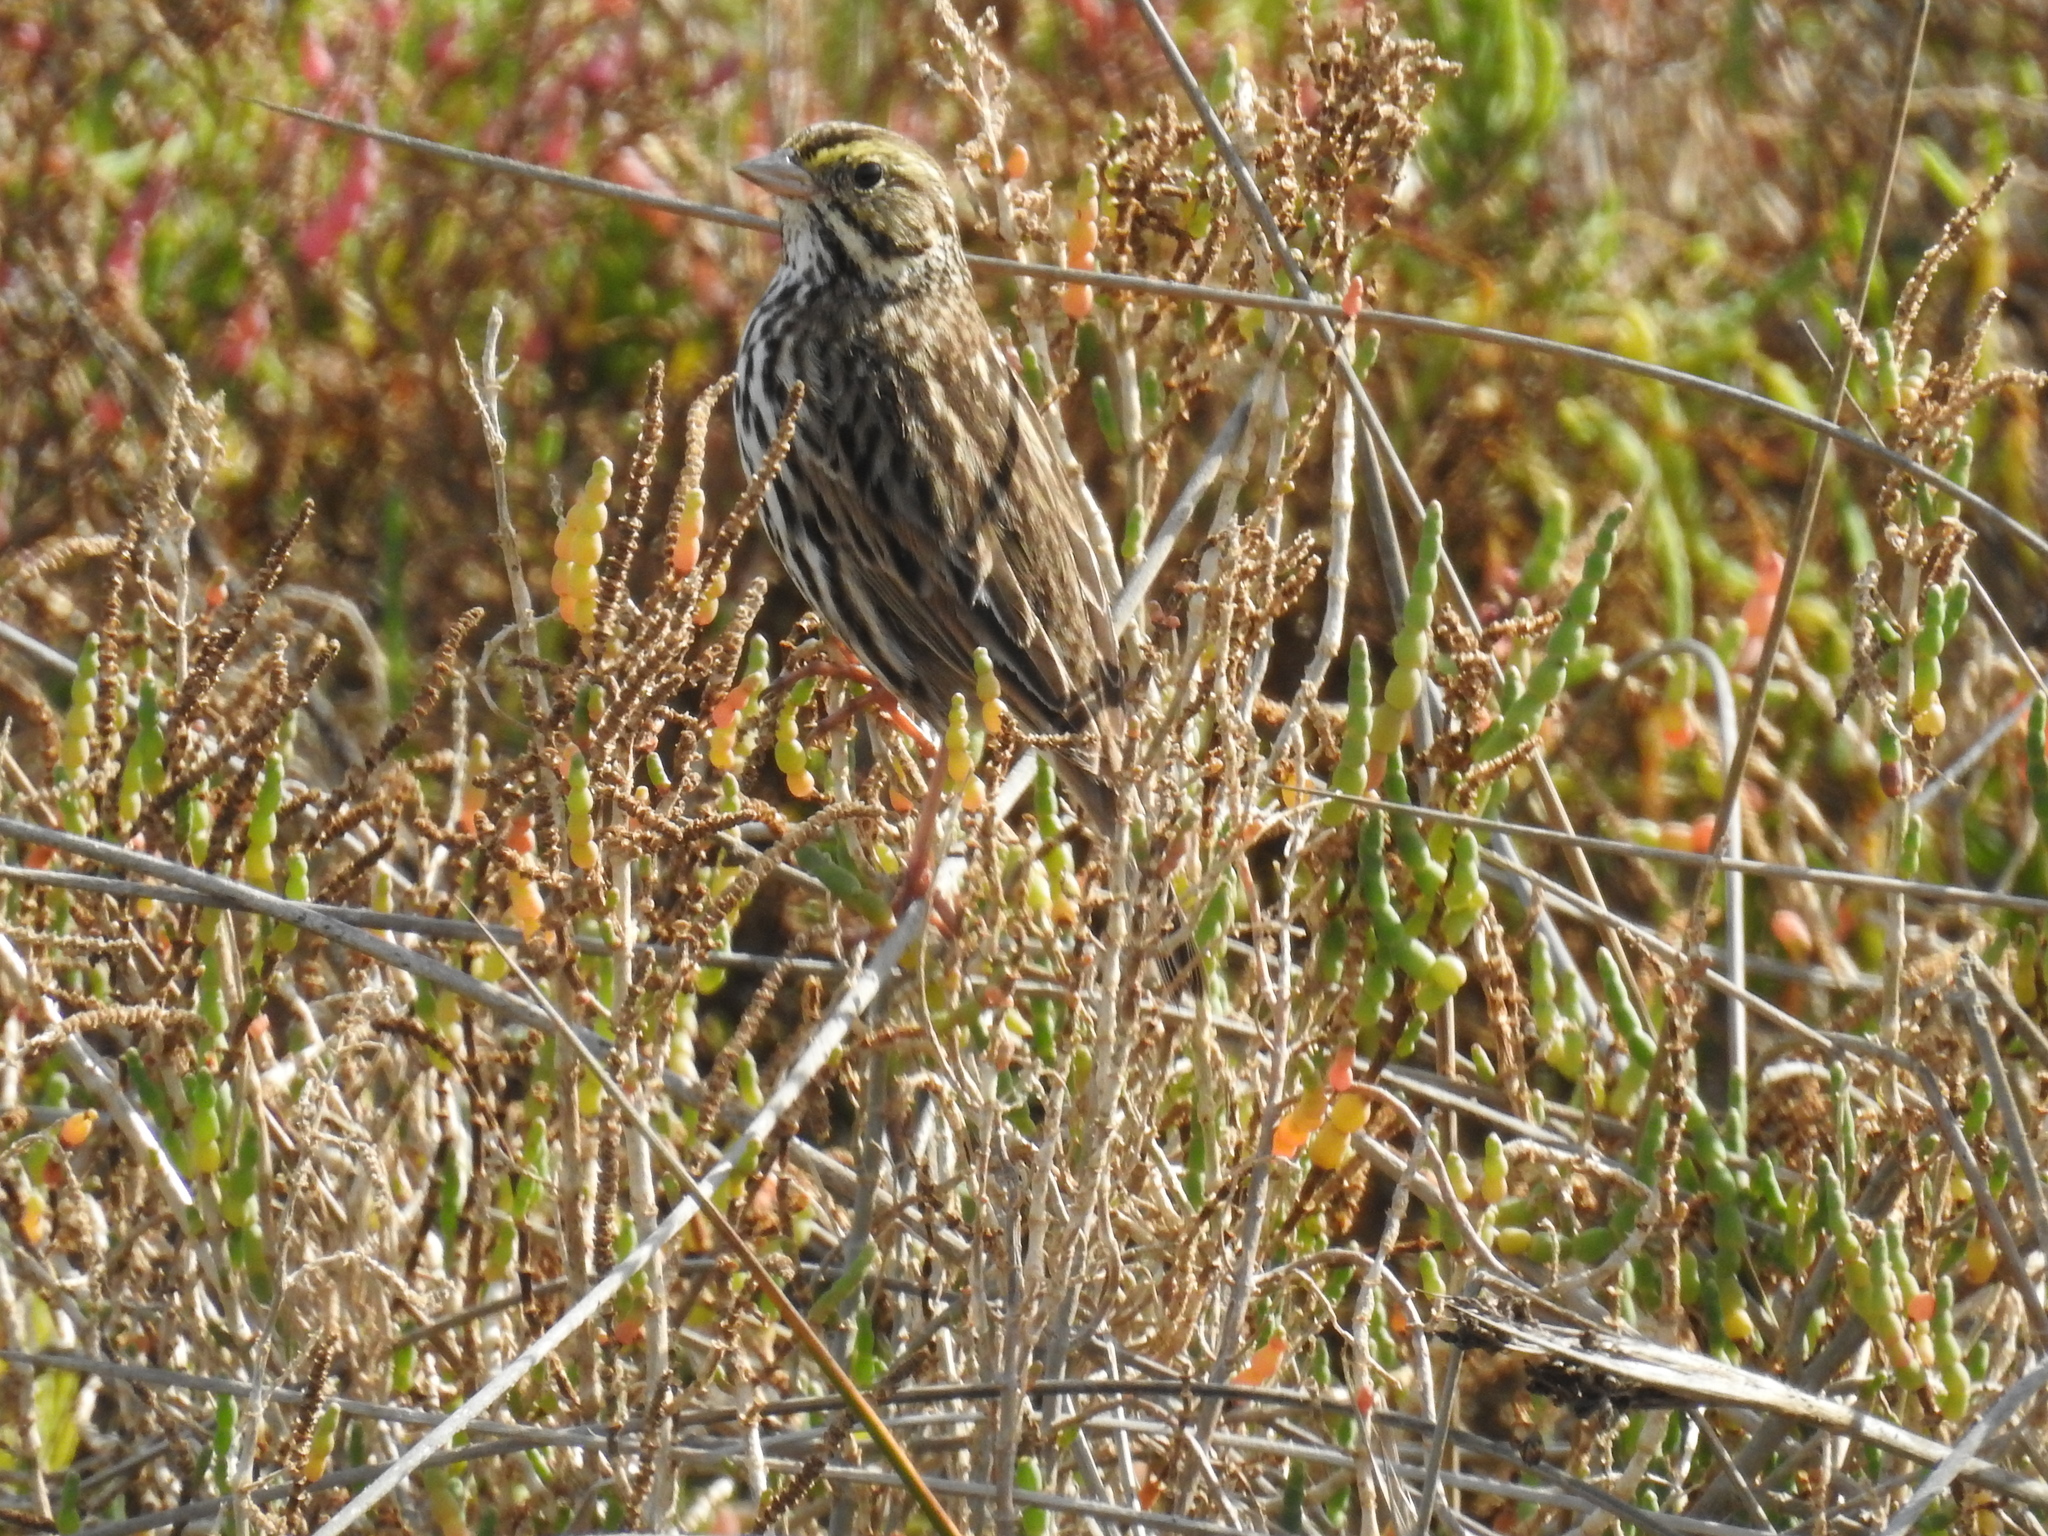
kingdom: Animalia
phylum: Chordata
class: Aves
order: Passeriformes
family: Passerellidae
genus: Passerculus
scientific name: Passerculus sandwichensis
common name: Savannah sparrow
